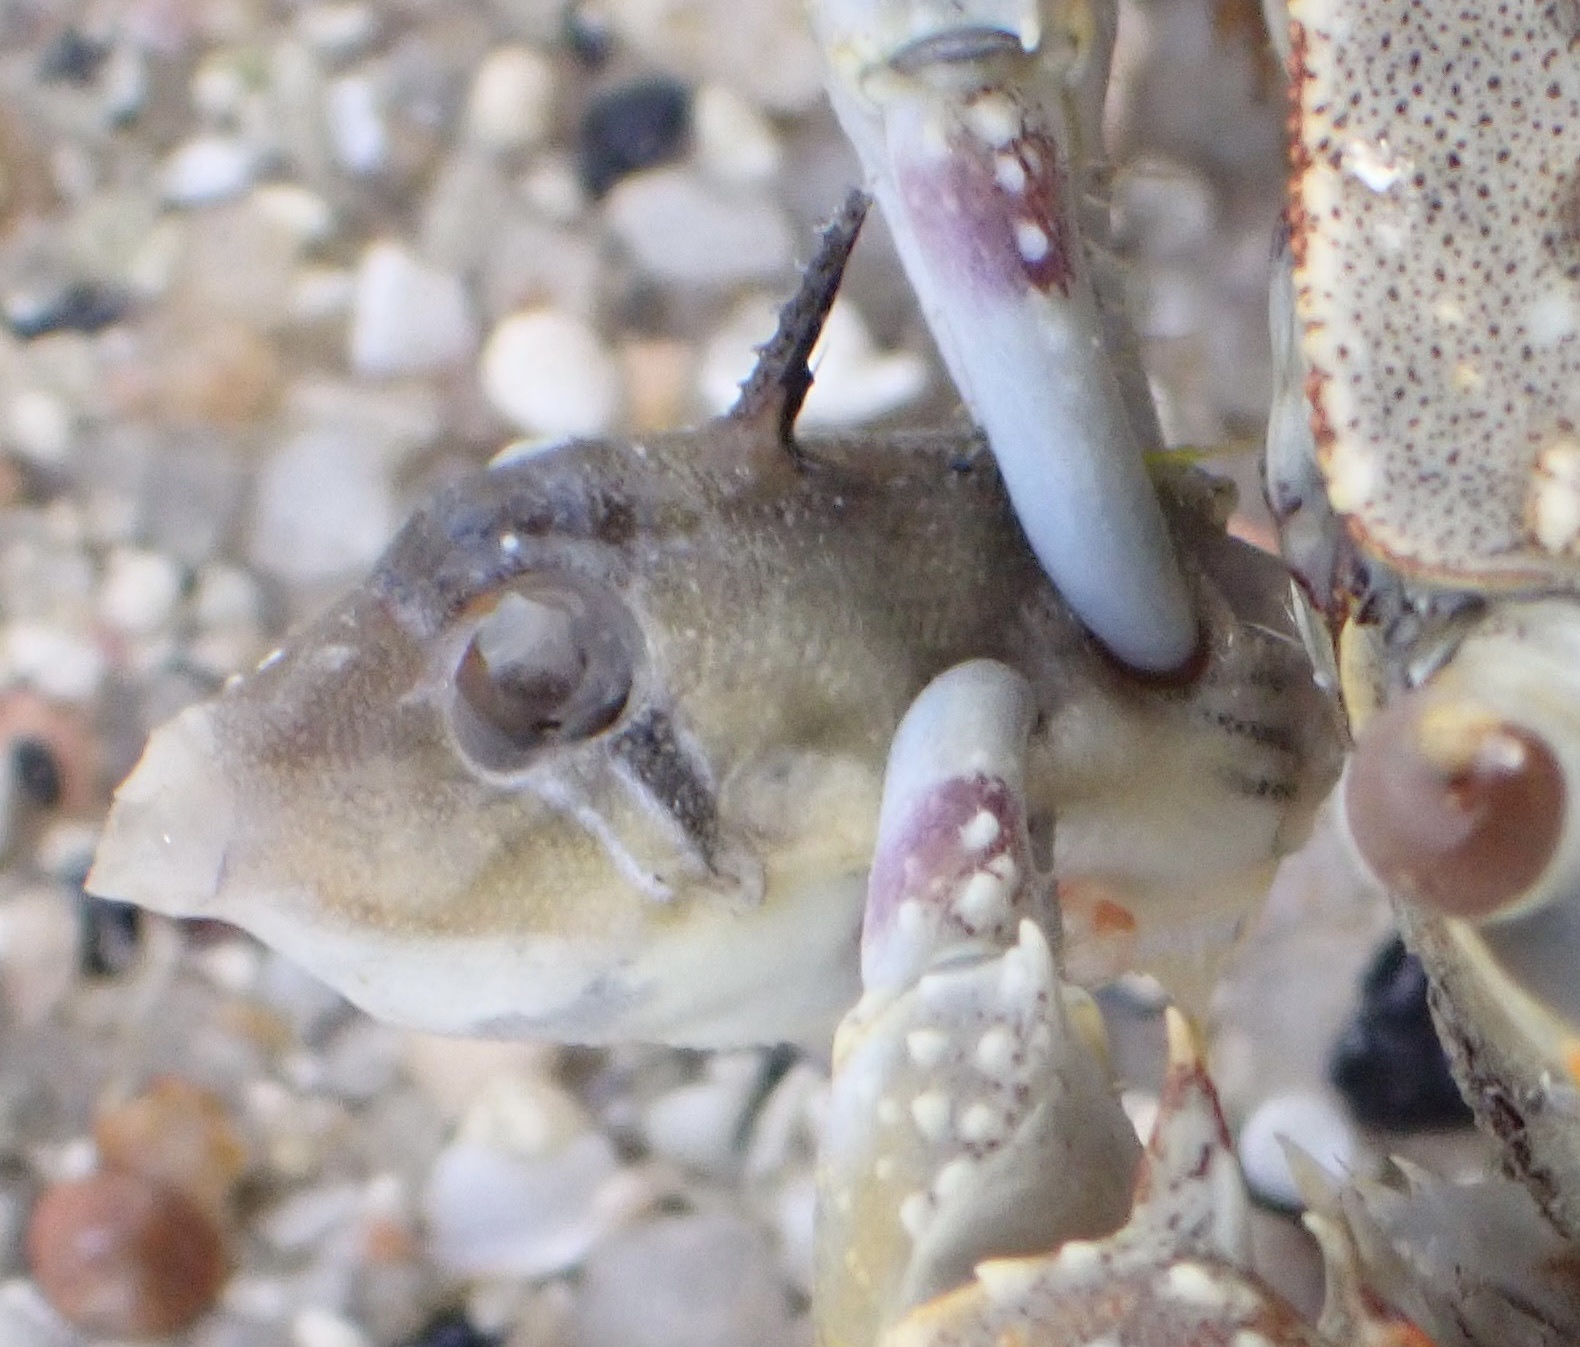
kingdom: Animalia
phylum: Chordata
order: Tetraodontiformes
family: Balistidae
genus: Rhinecanthus
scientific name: Rhinecanthus assasi
